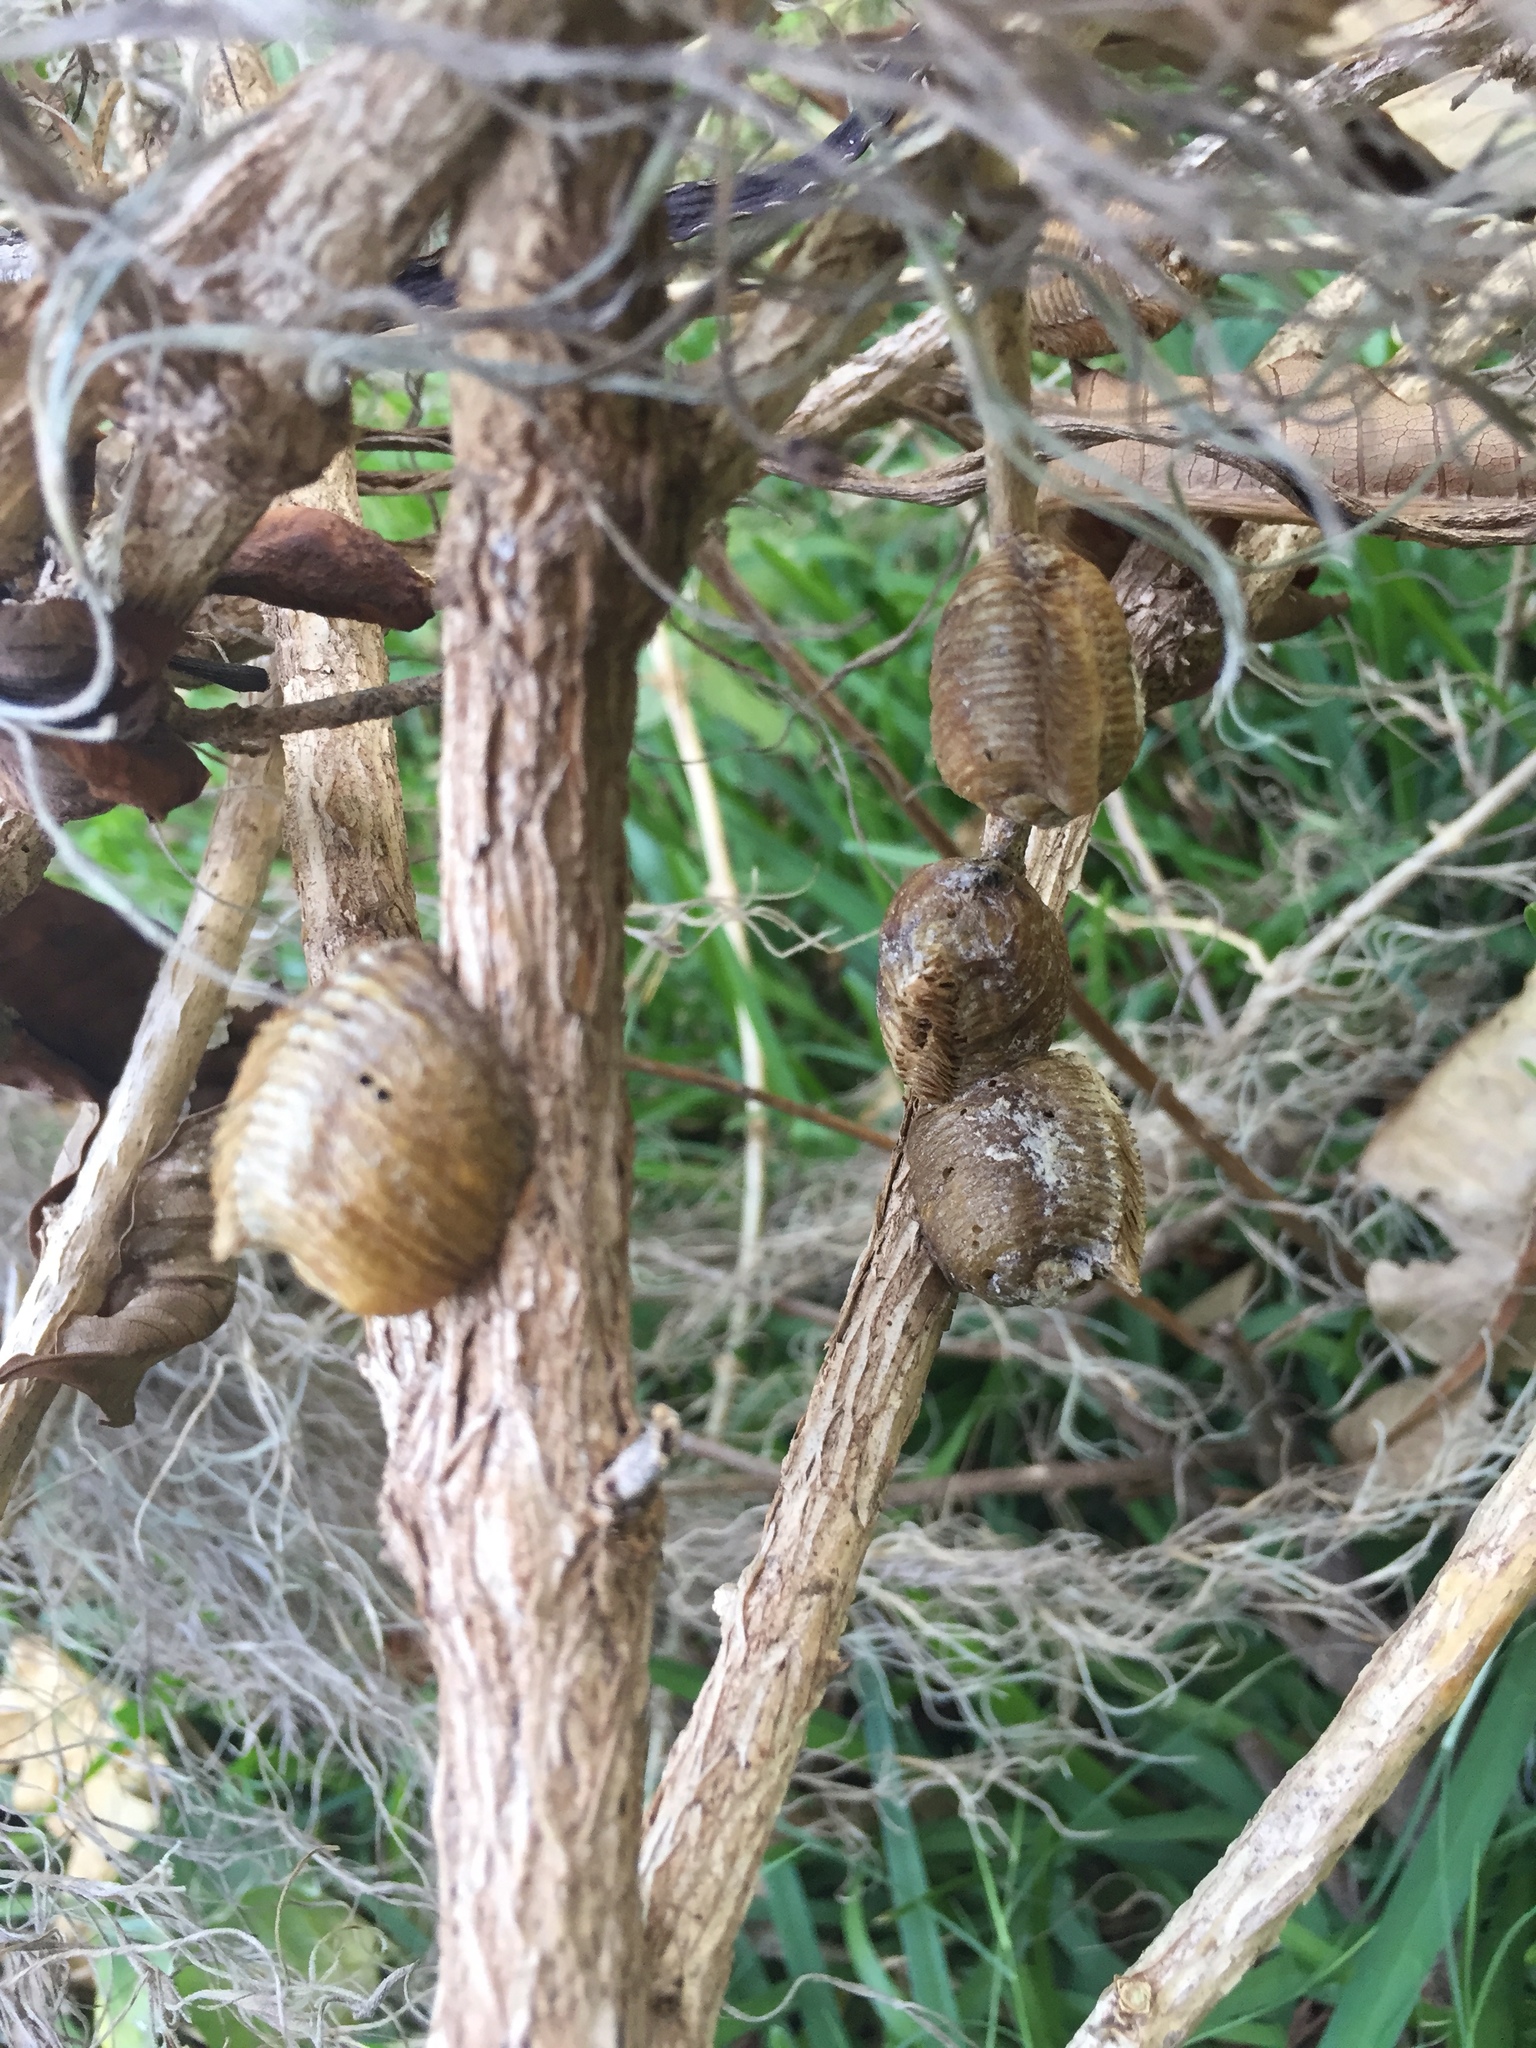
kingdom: Animalia
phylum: Arthropoda
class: Insecta
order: Mantodea
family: Mantidae
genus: Hierodula
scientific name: Hierodula patellifera
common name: Asian mantis
